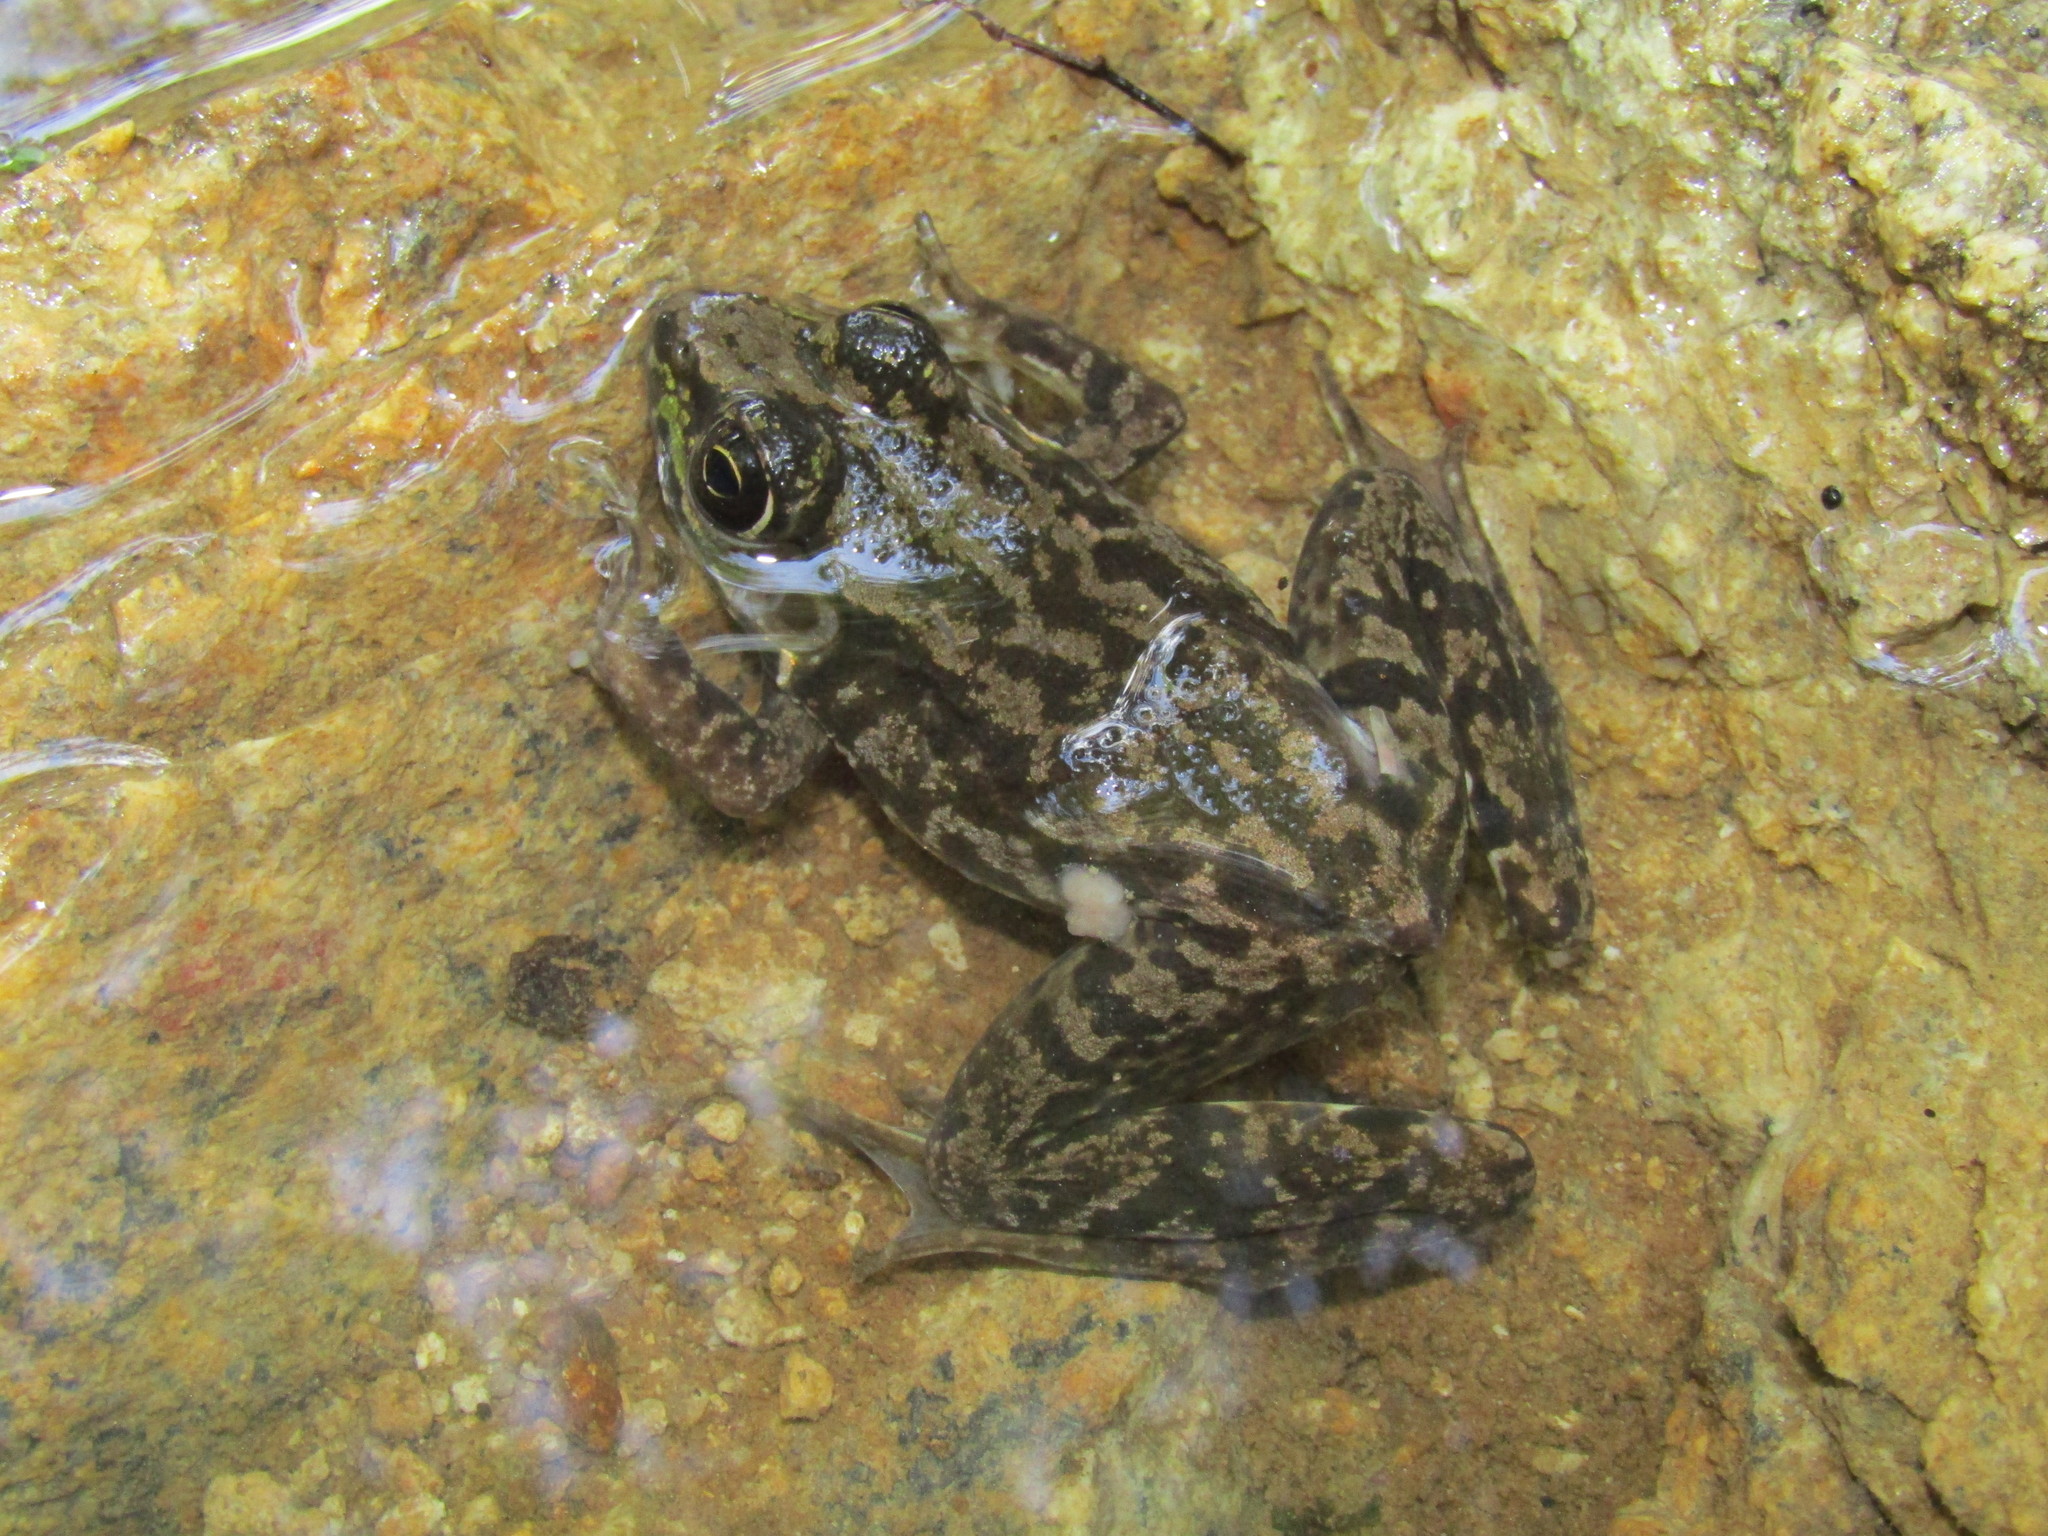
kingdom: Animalia
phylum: Chordata
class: Amphibia
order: Anura
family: Ranidae
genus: Lithobates
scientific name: Lithobates catesbeianus
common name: American bullfrog
